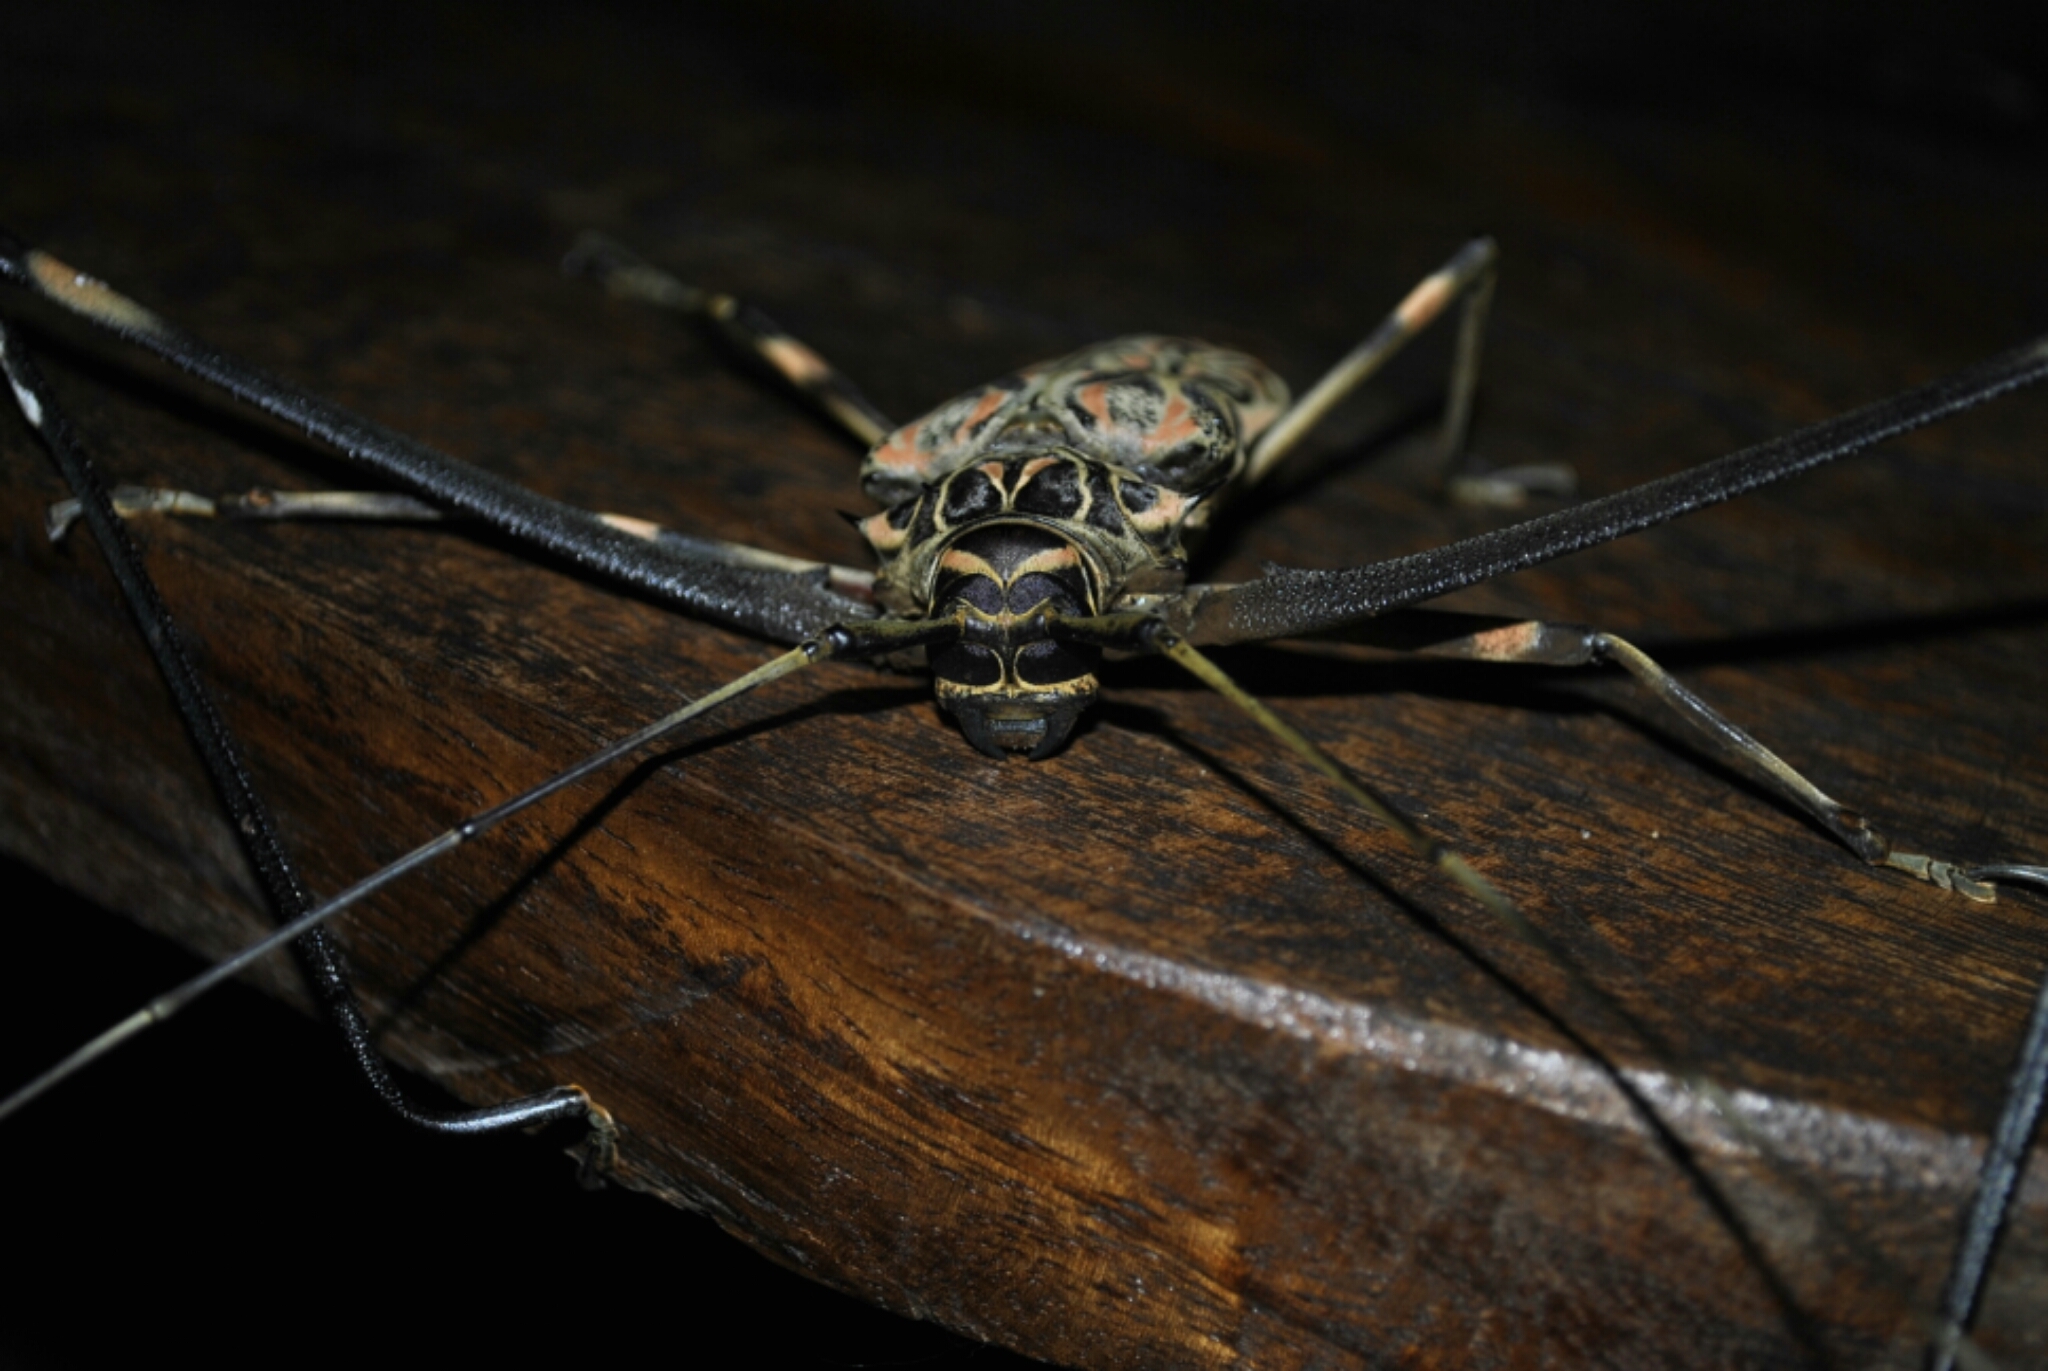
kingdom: Animalia
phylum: Arthropoda
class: Insecta
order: Coleoptera
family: Cerambycidae
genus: Acrocinus
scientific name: Acrocinus longimanus
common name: Arlequin
